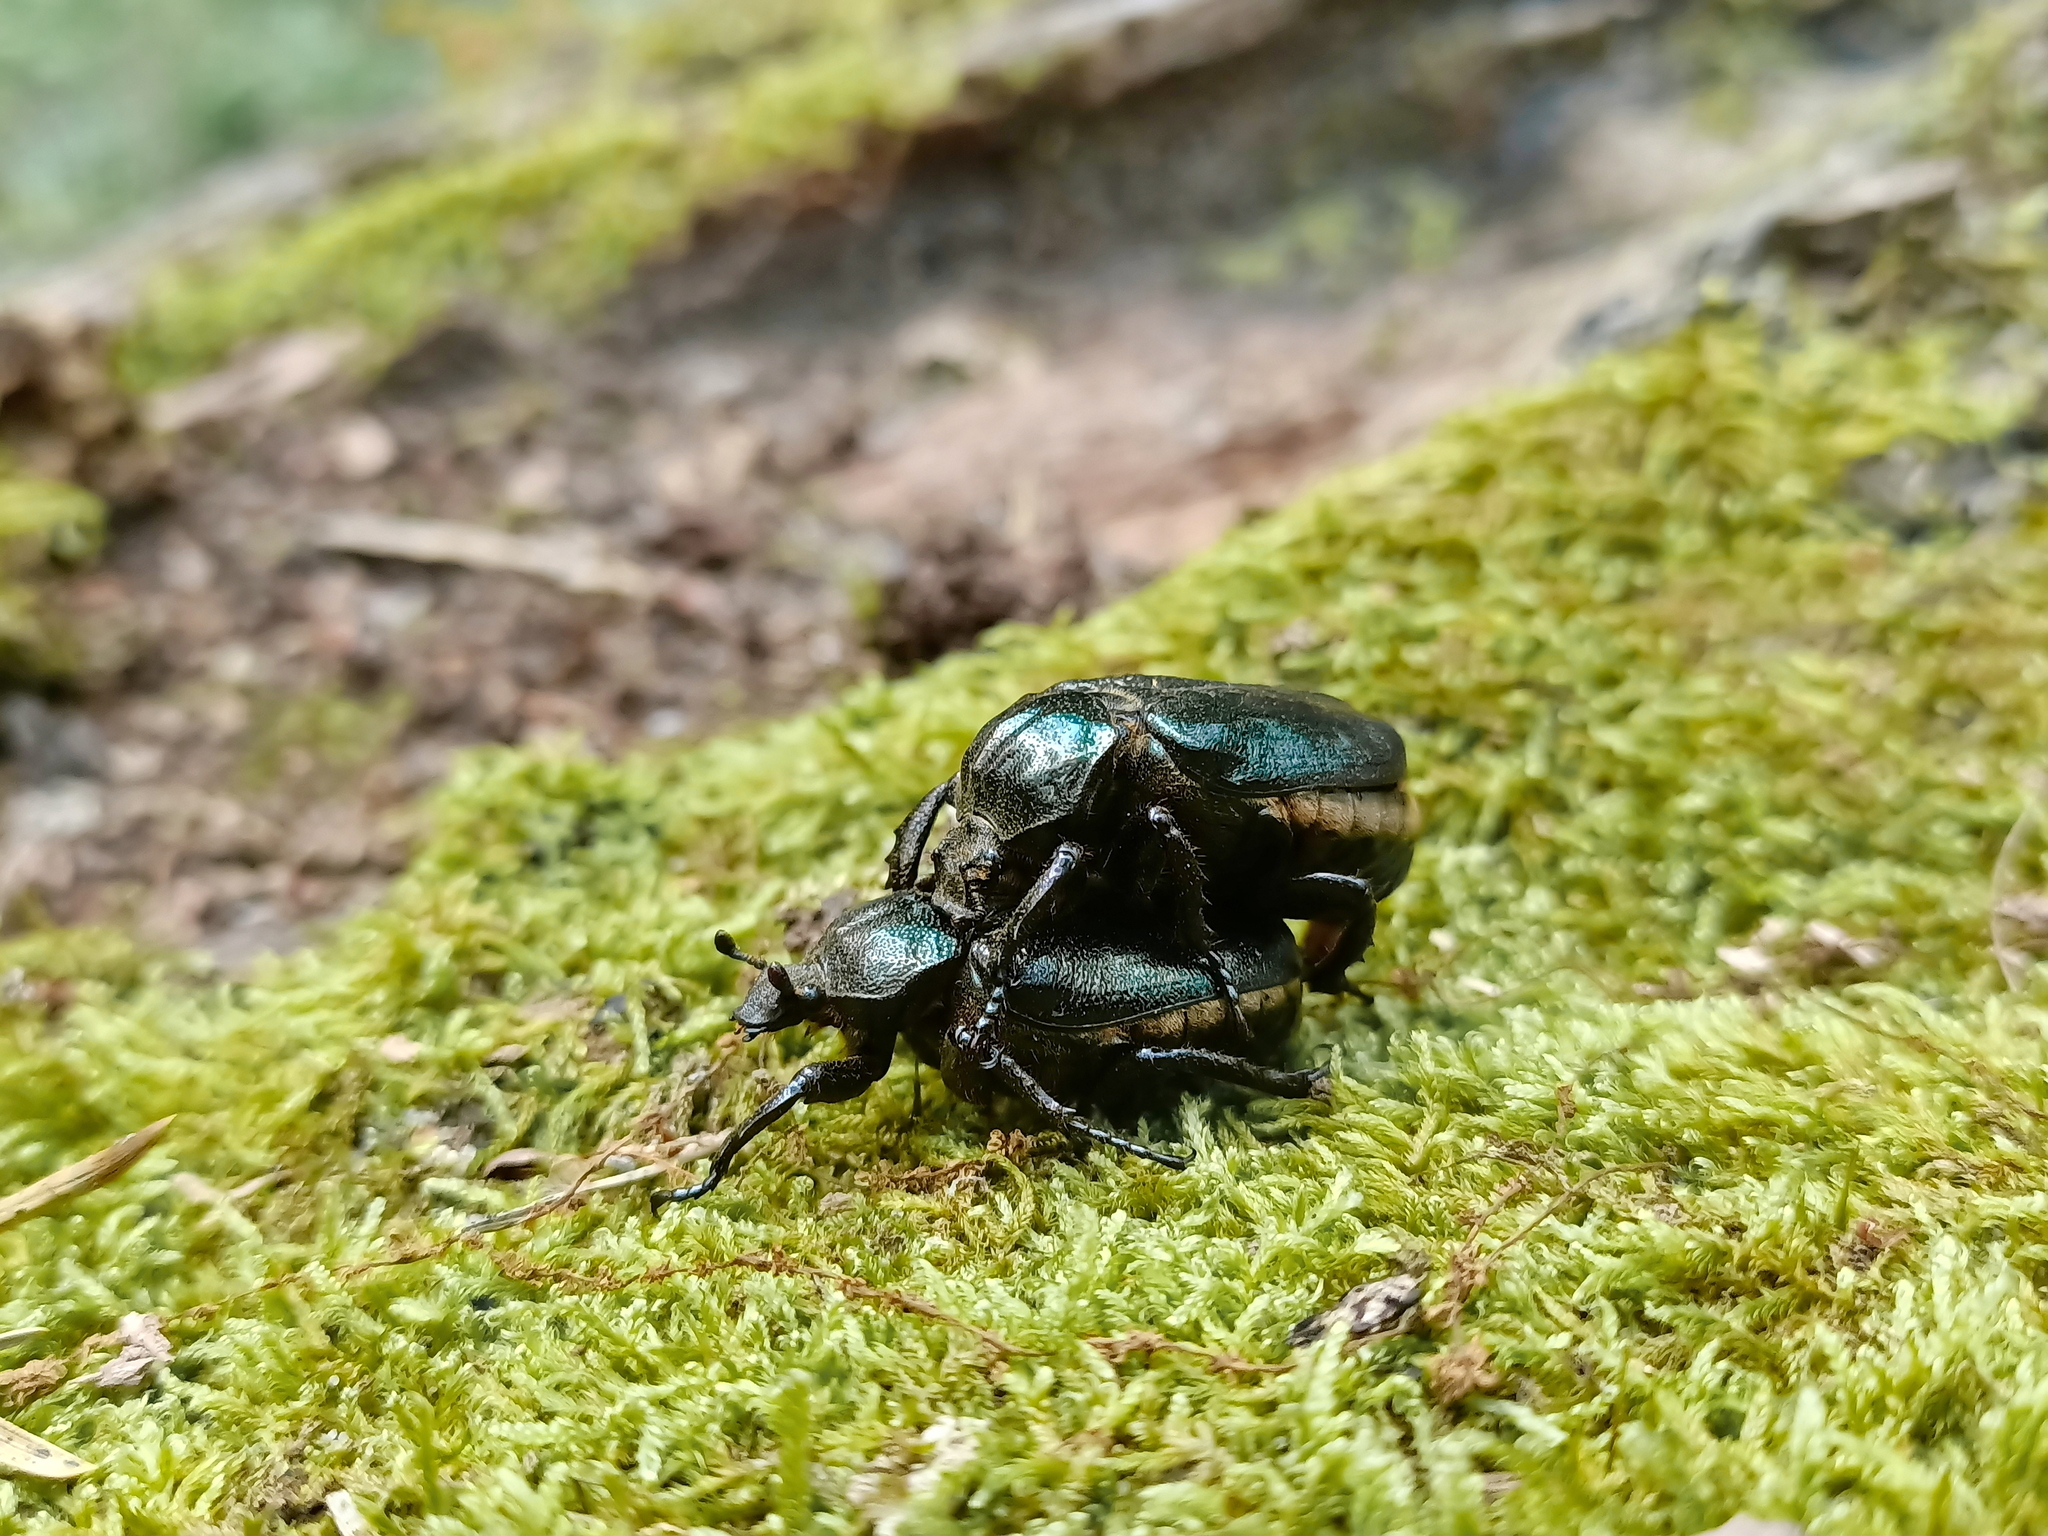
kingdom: Animalia
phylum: Arthropoda
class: Insecta
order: Coleoptera
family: Scarabaeidae
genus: Osmoderma
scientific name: Osmoderma barnabita
